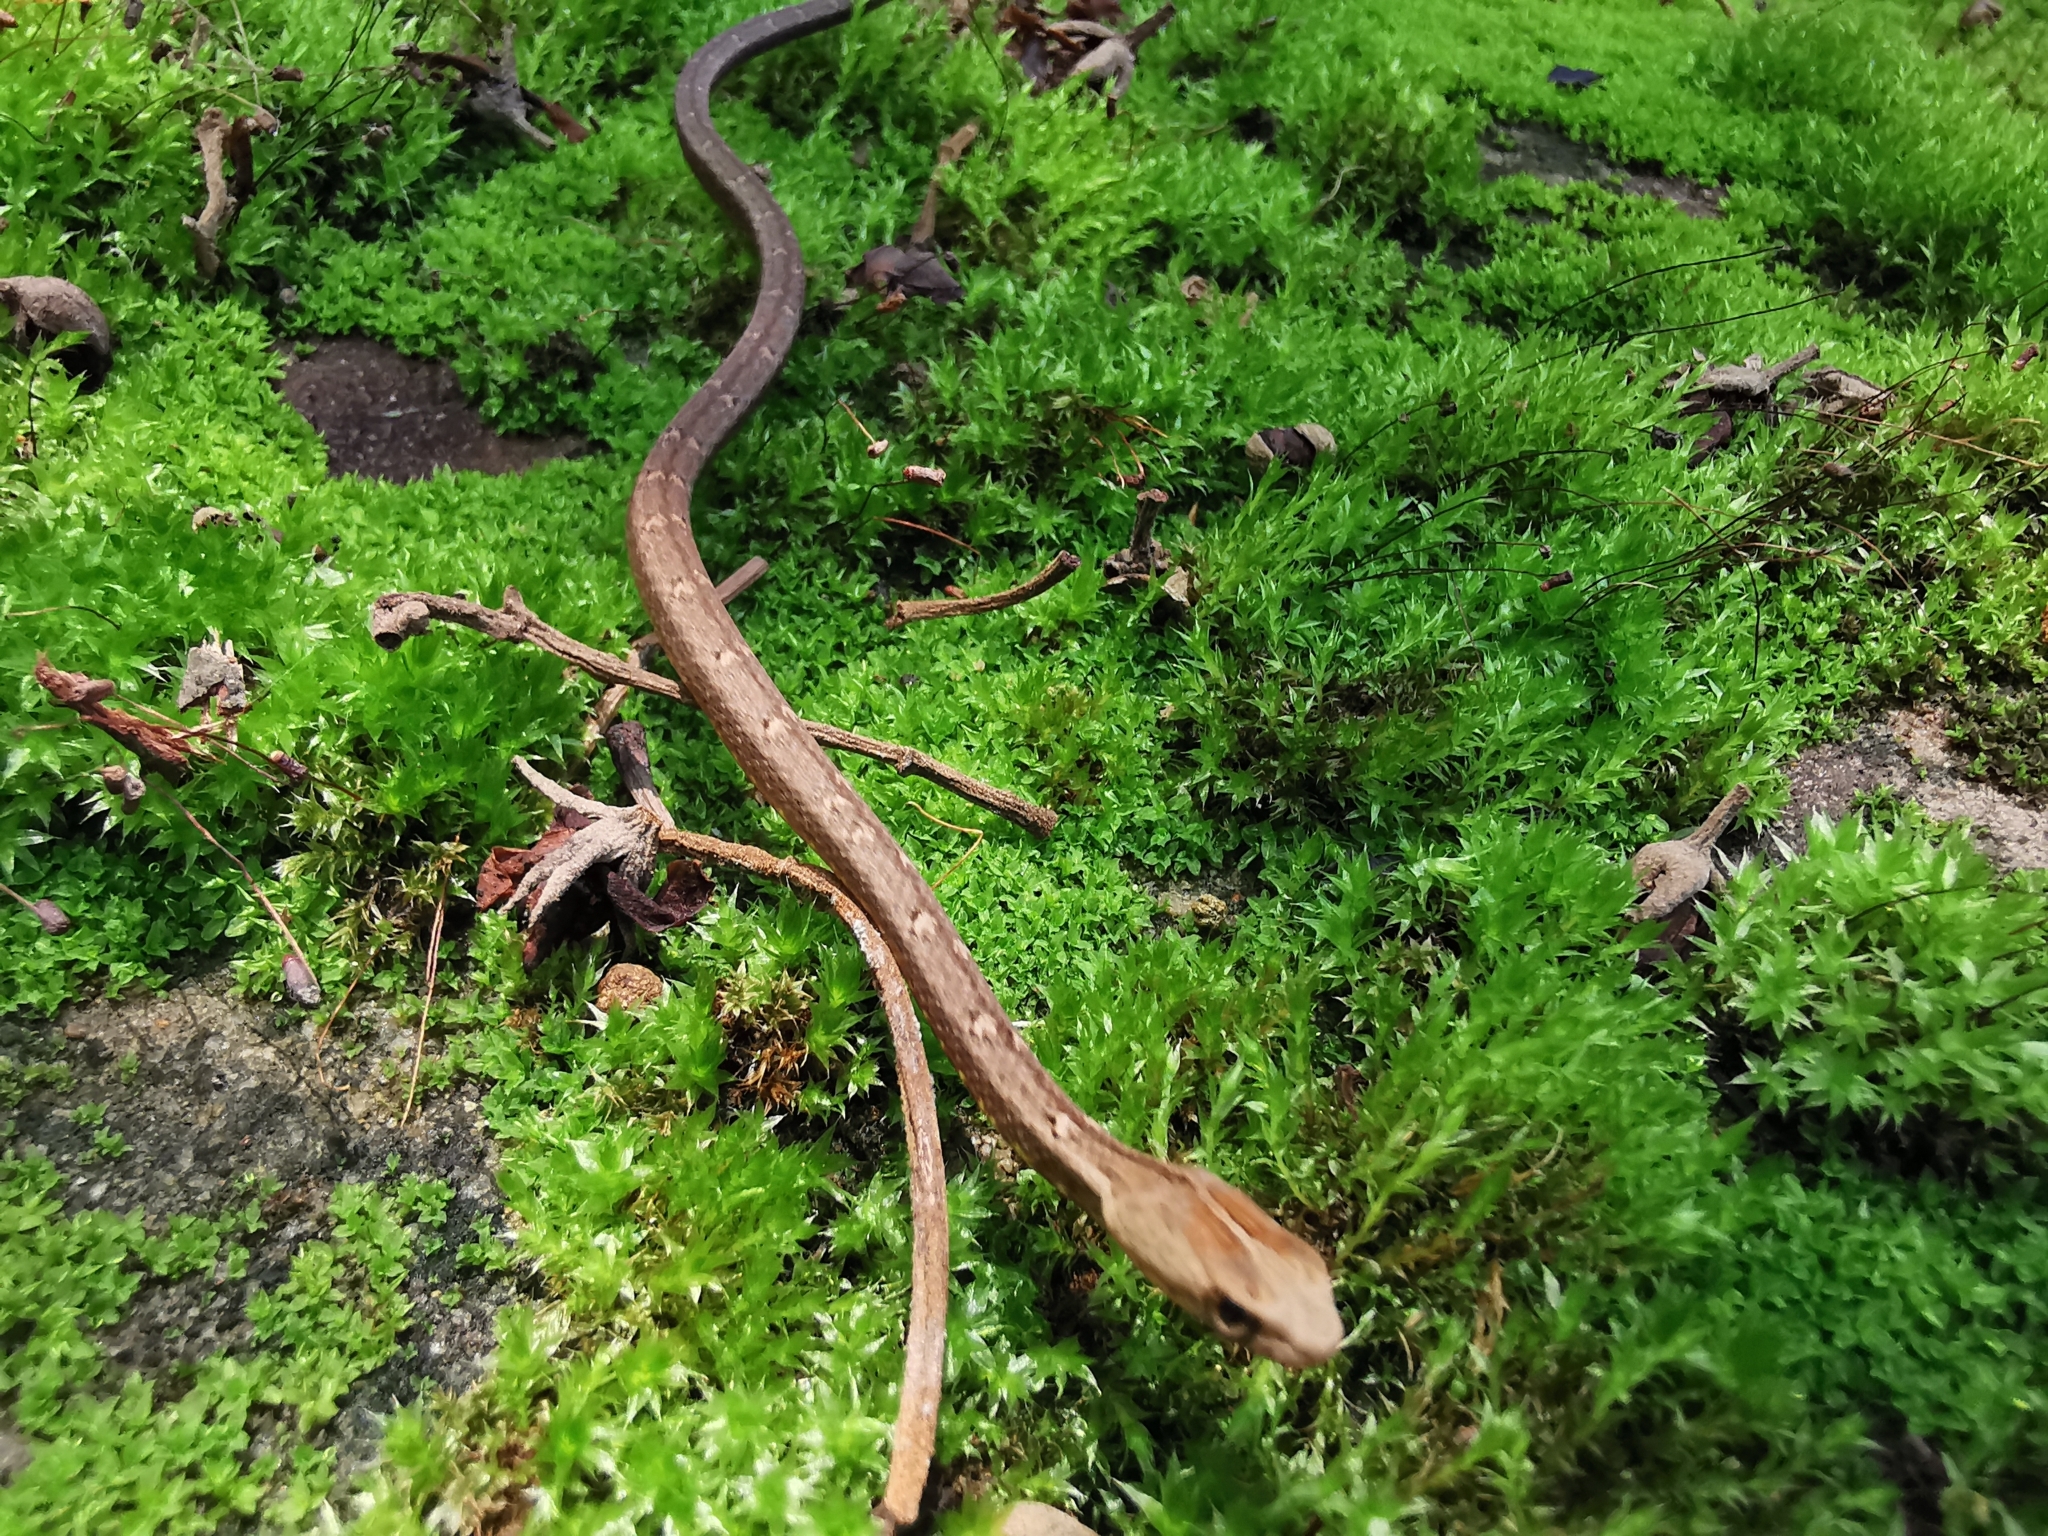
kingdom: Animalia
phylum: Chordata
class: Squamata
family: Pseudaspididae
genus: Psammodynastes
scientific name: Psammodynastes pulverulentus
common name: Common mock viper
